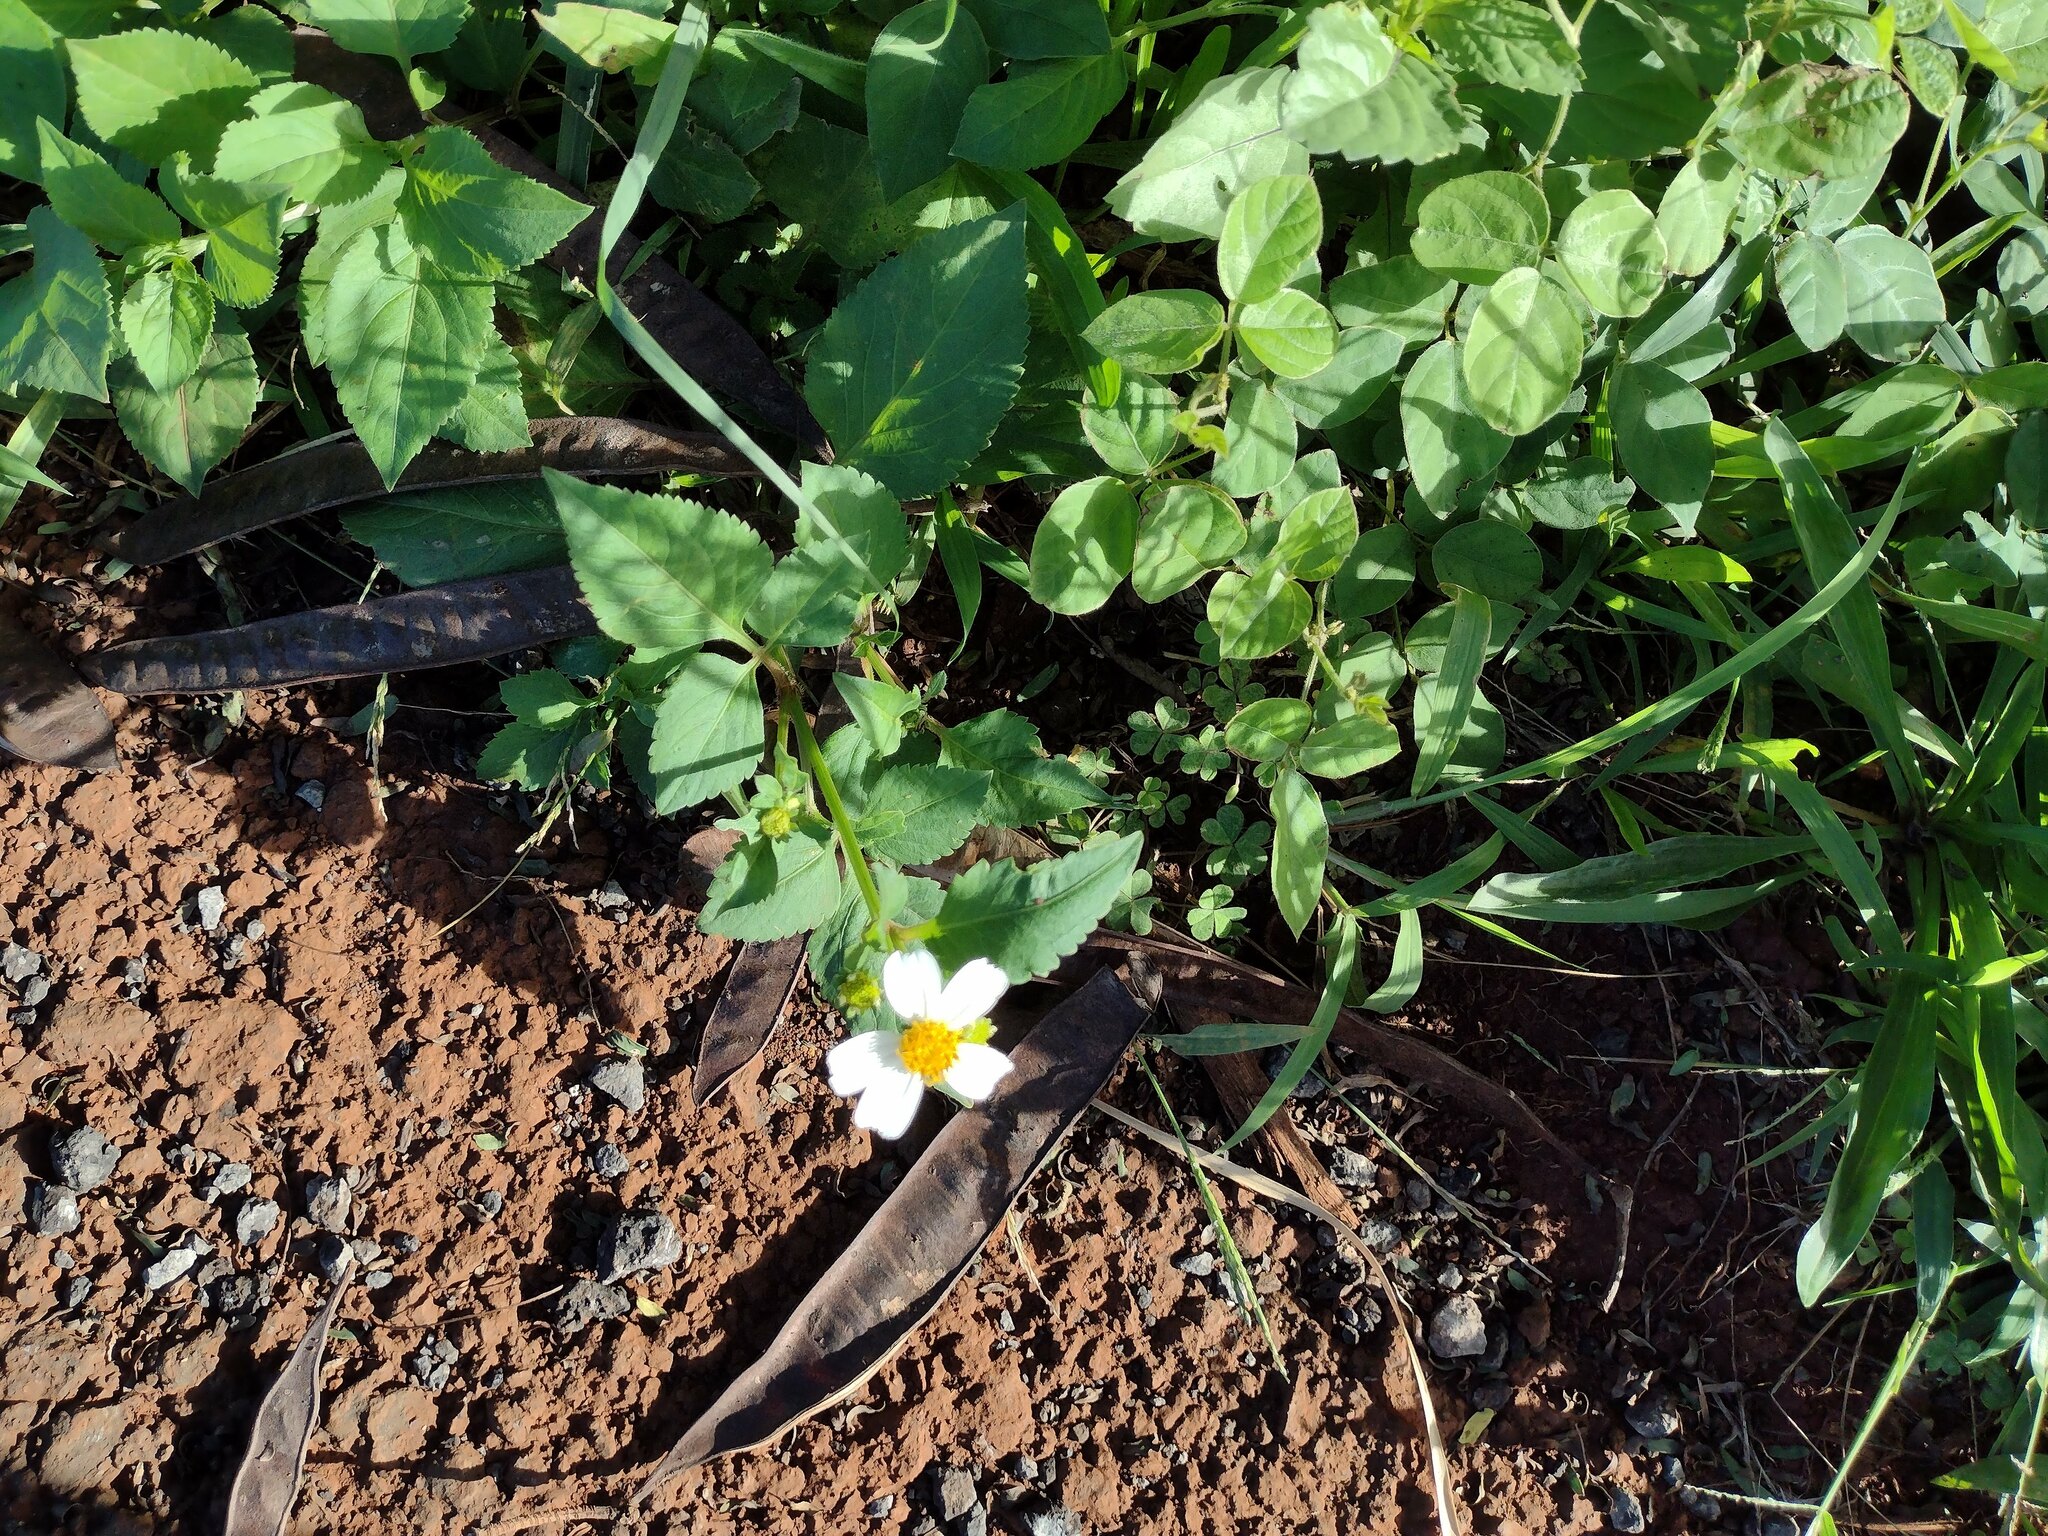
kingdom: Plantae
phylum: Tracheophyta
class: Magnoliopsida
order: Asterales
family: Asteraceae
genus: Bidens
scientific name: Bidens alba
